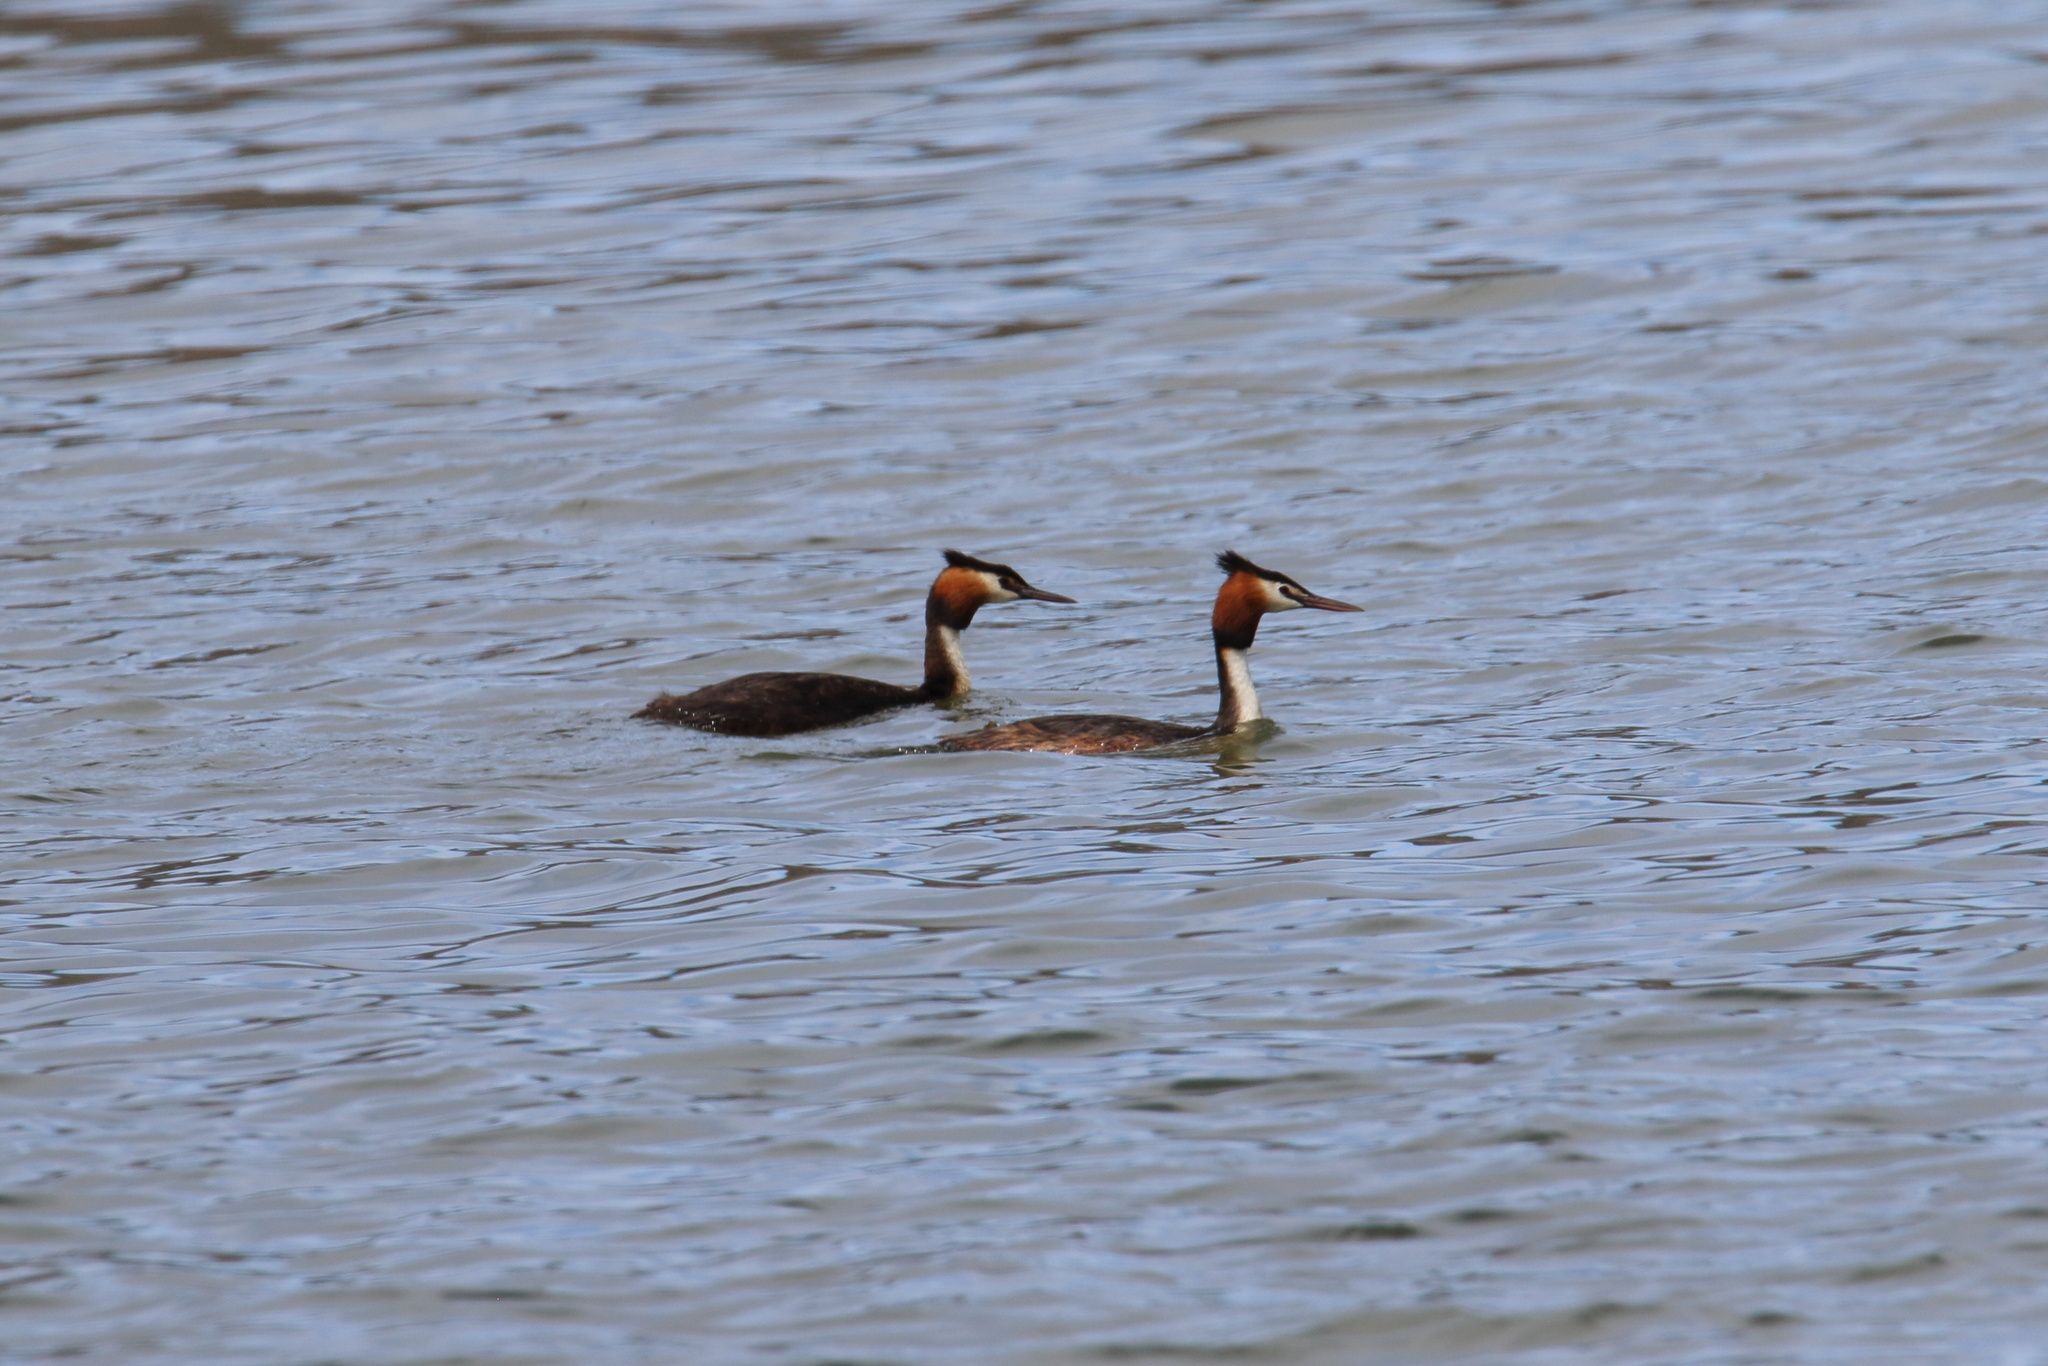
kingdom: Animalia
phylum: Chordata
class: Aves
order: Podicipediformes
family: Podicipedidae
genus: Podiceps
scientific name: Podiceps cristatus
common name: Great crested grebe
